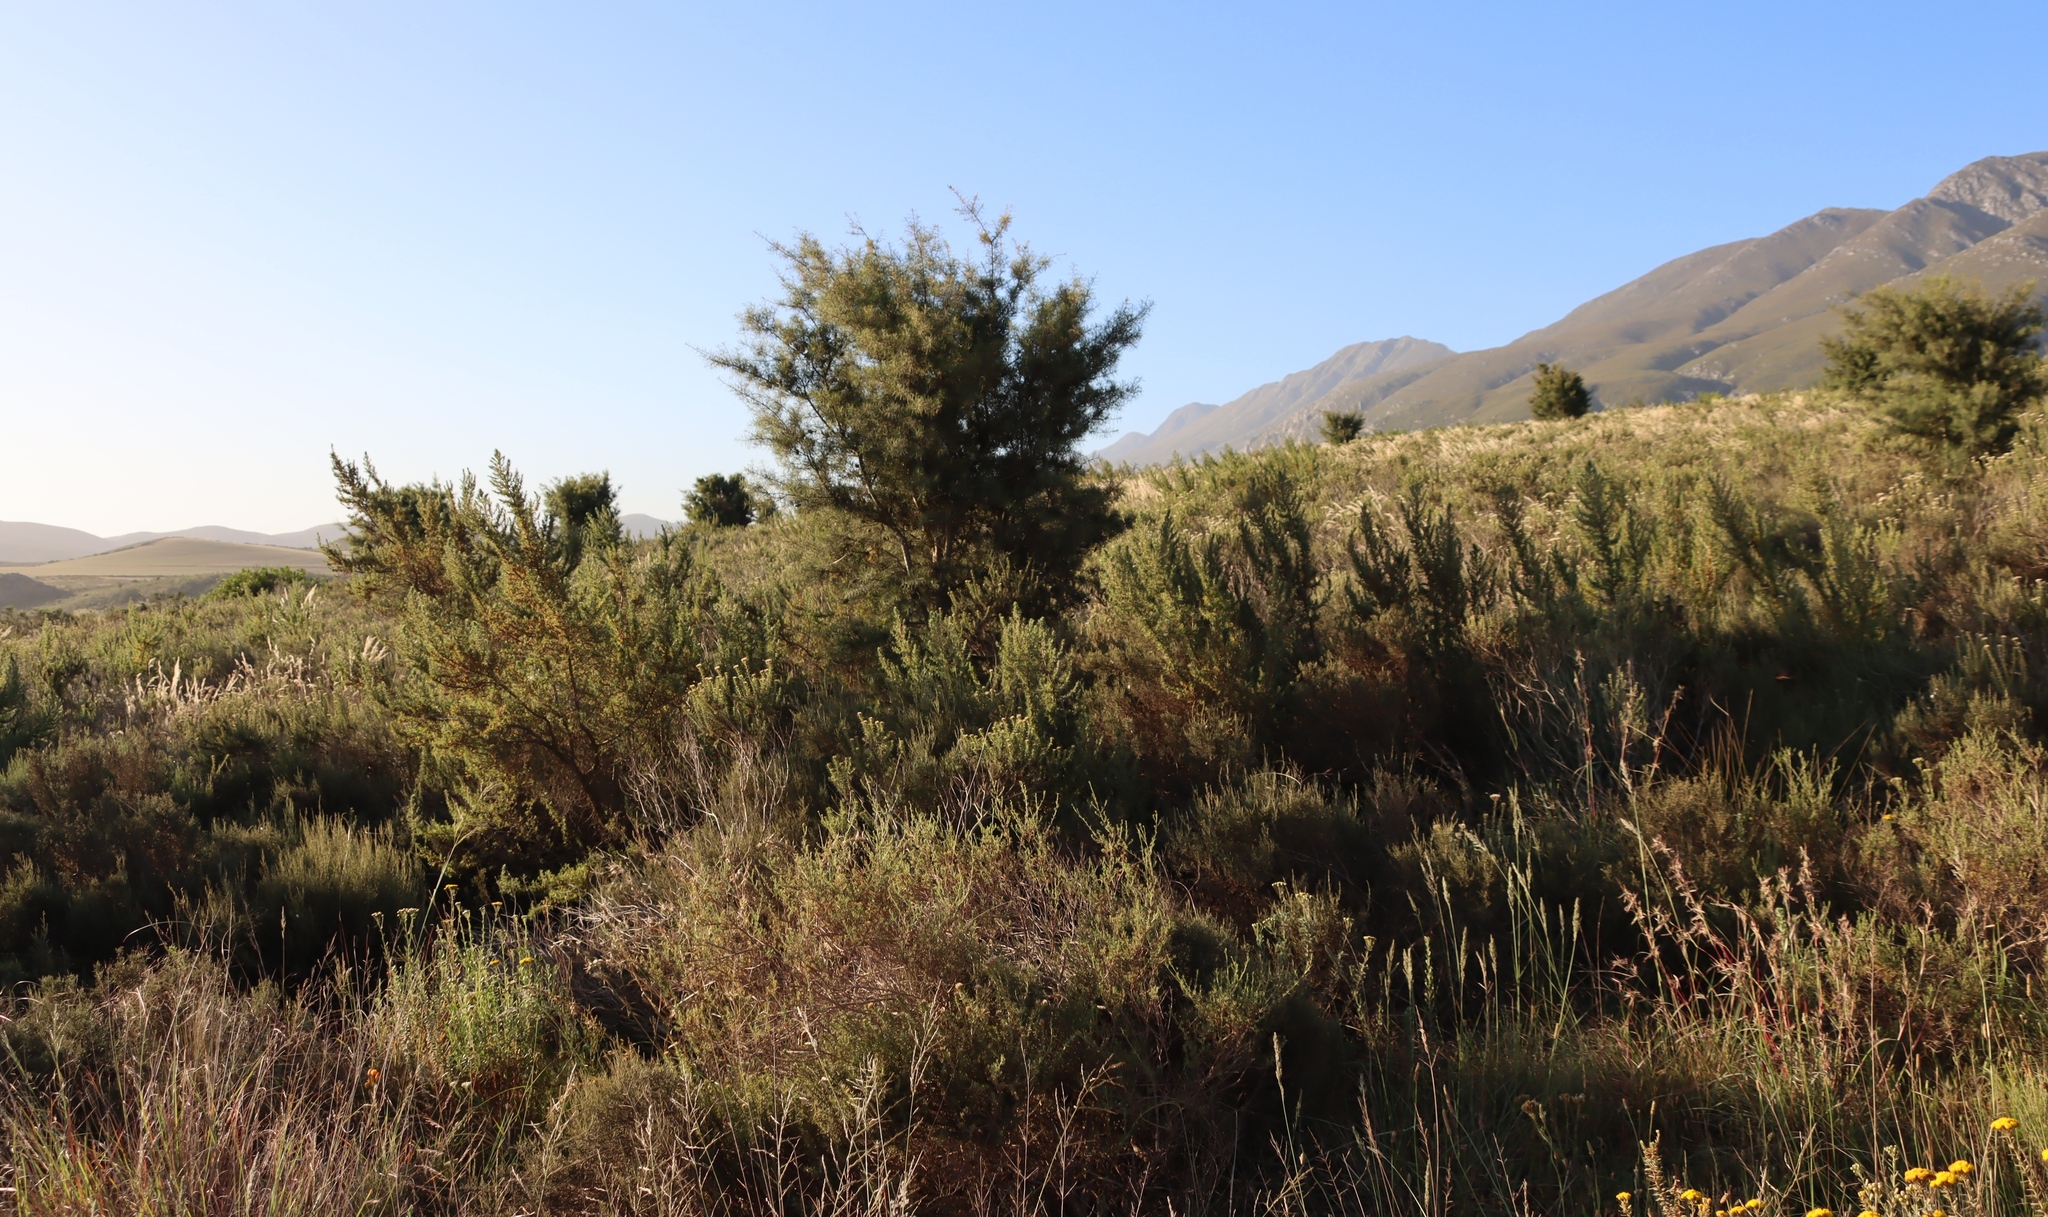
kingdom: Plantae
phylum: Tracheophyta
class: Magnoliopsida
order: Proteales
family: Proteaceae
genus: Hakea
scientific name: Hakea sericea
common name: Needle bush
